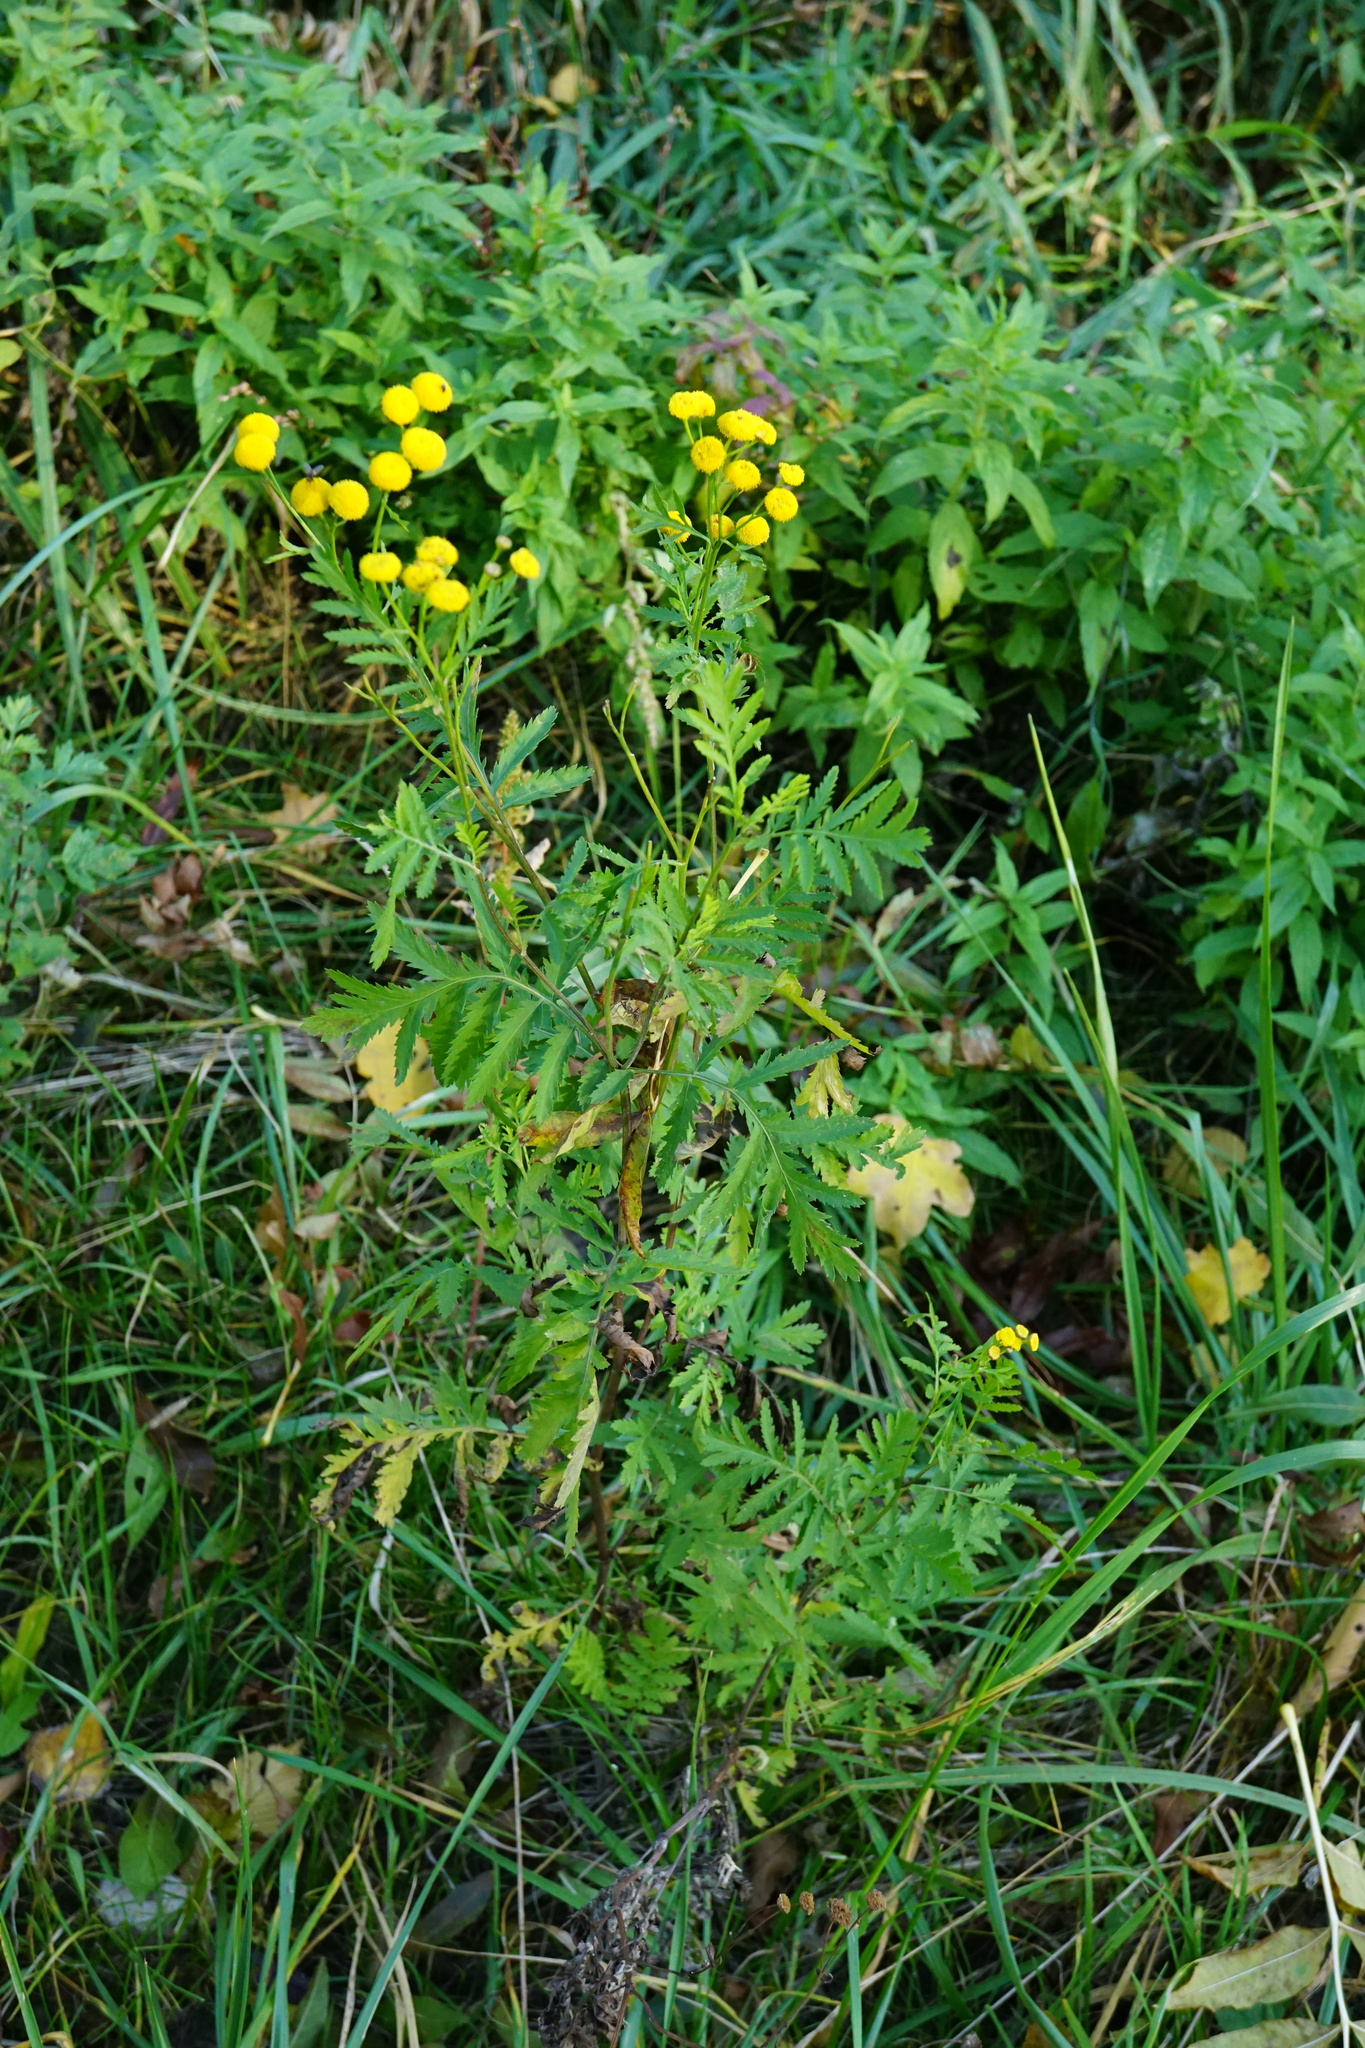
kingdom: Plantae
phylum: Tracheophyta
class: Magnoliopsida
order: Asterales
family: Asteraceae
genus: Tanacetum
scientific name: Tanacetum vulgare
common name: Common tansy
